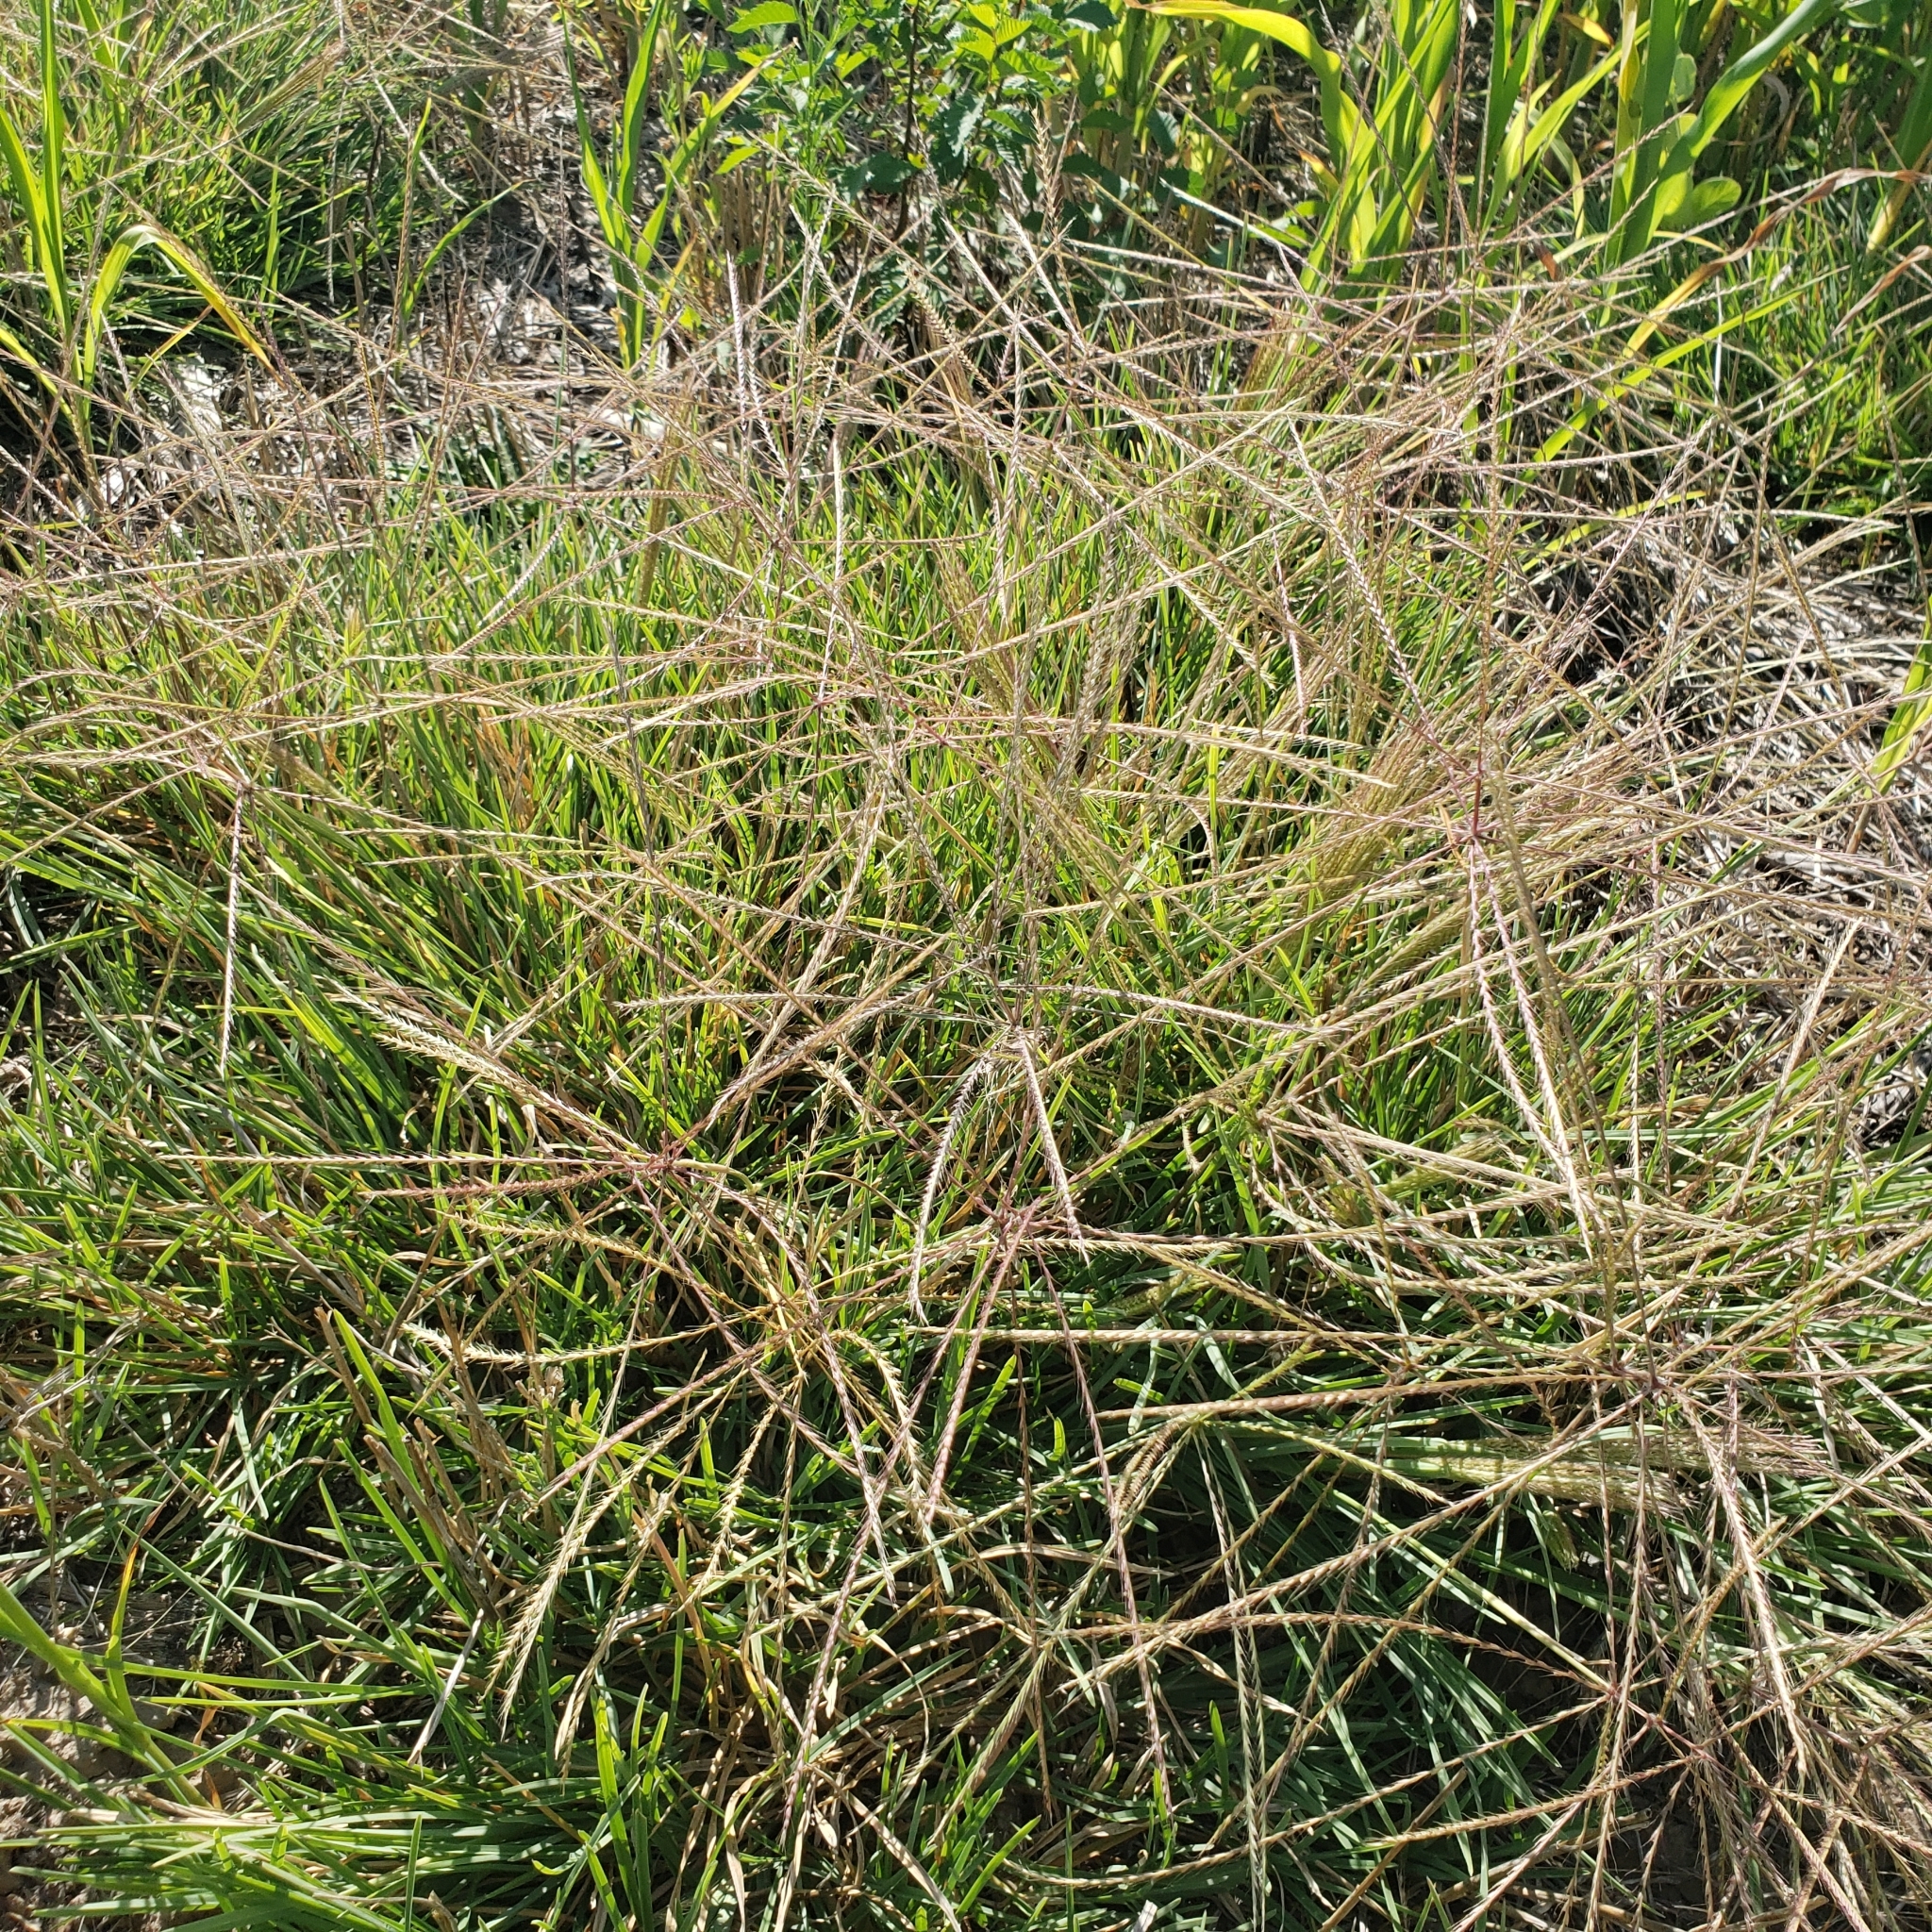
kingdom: Plantae
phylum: Tracheophyta
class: Liliopsida
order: Poales
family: Poaceae
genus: Chloris
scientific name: Chloris verticillata
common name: Tumble windmill grass
